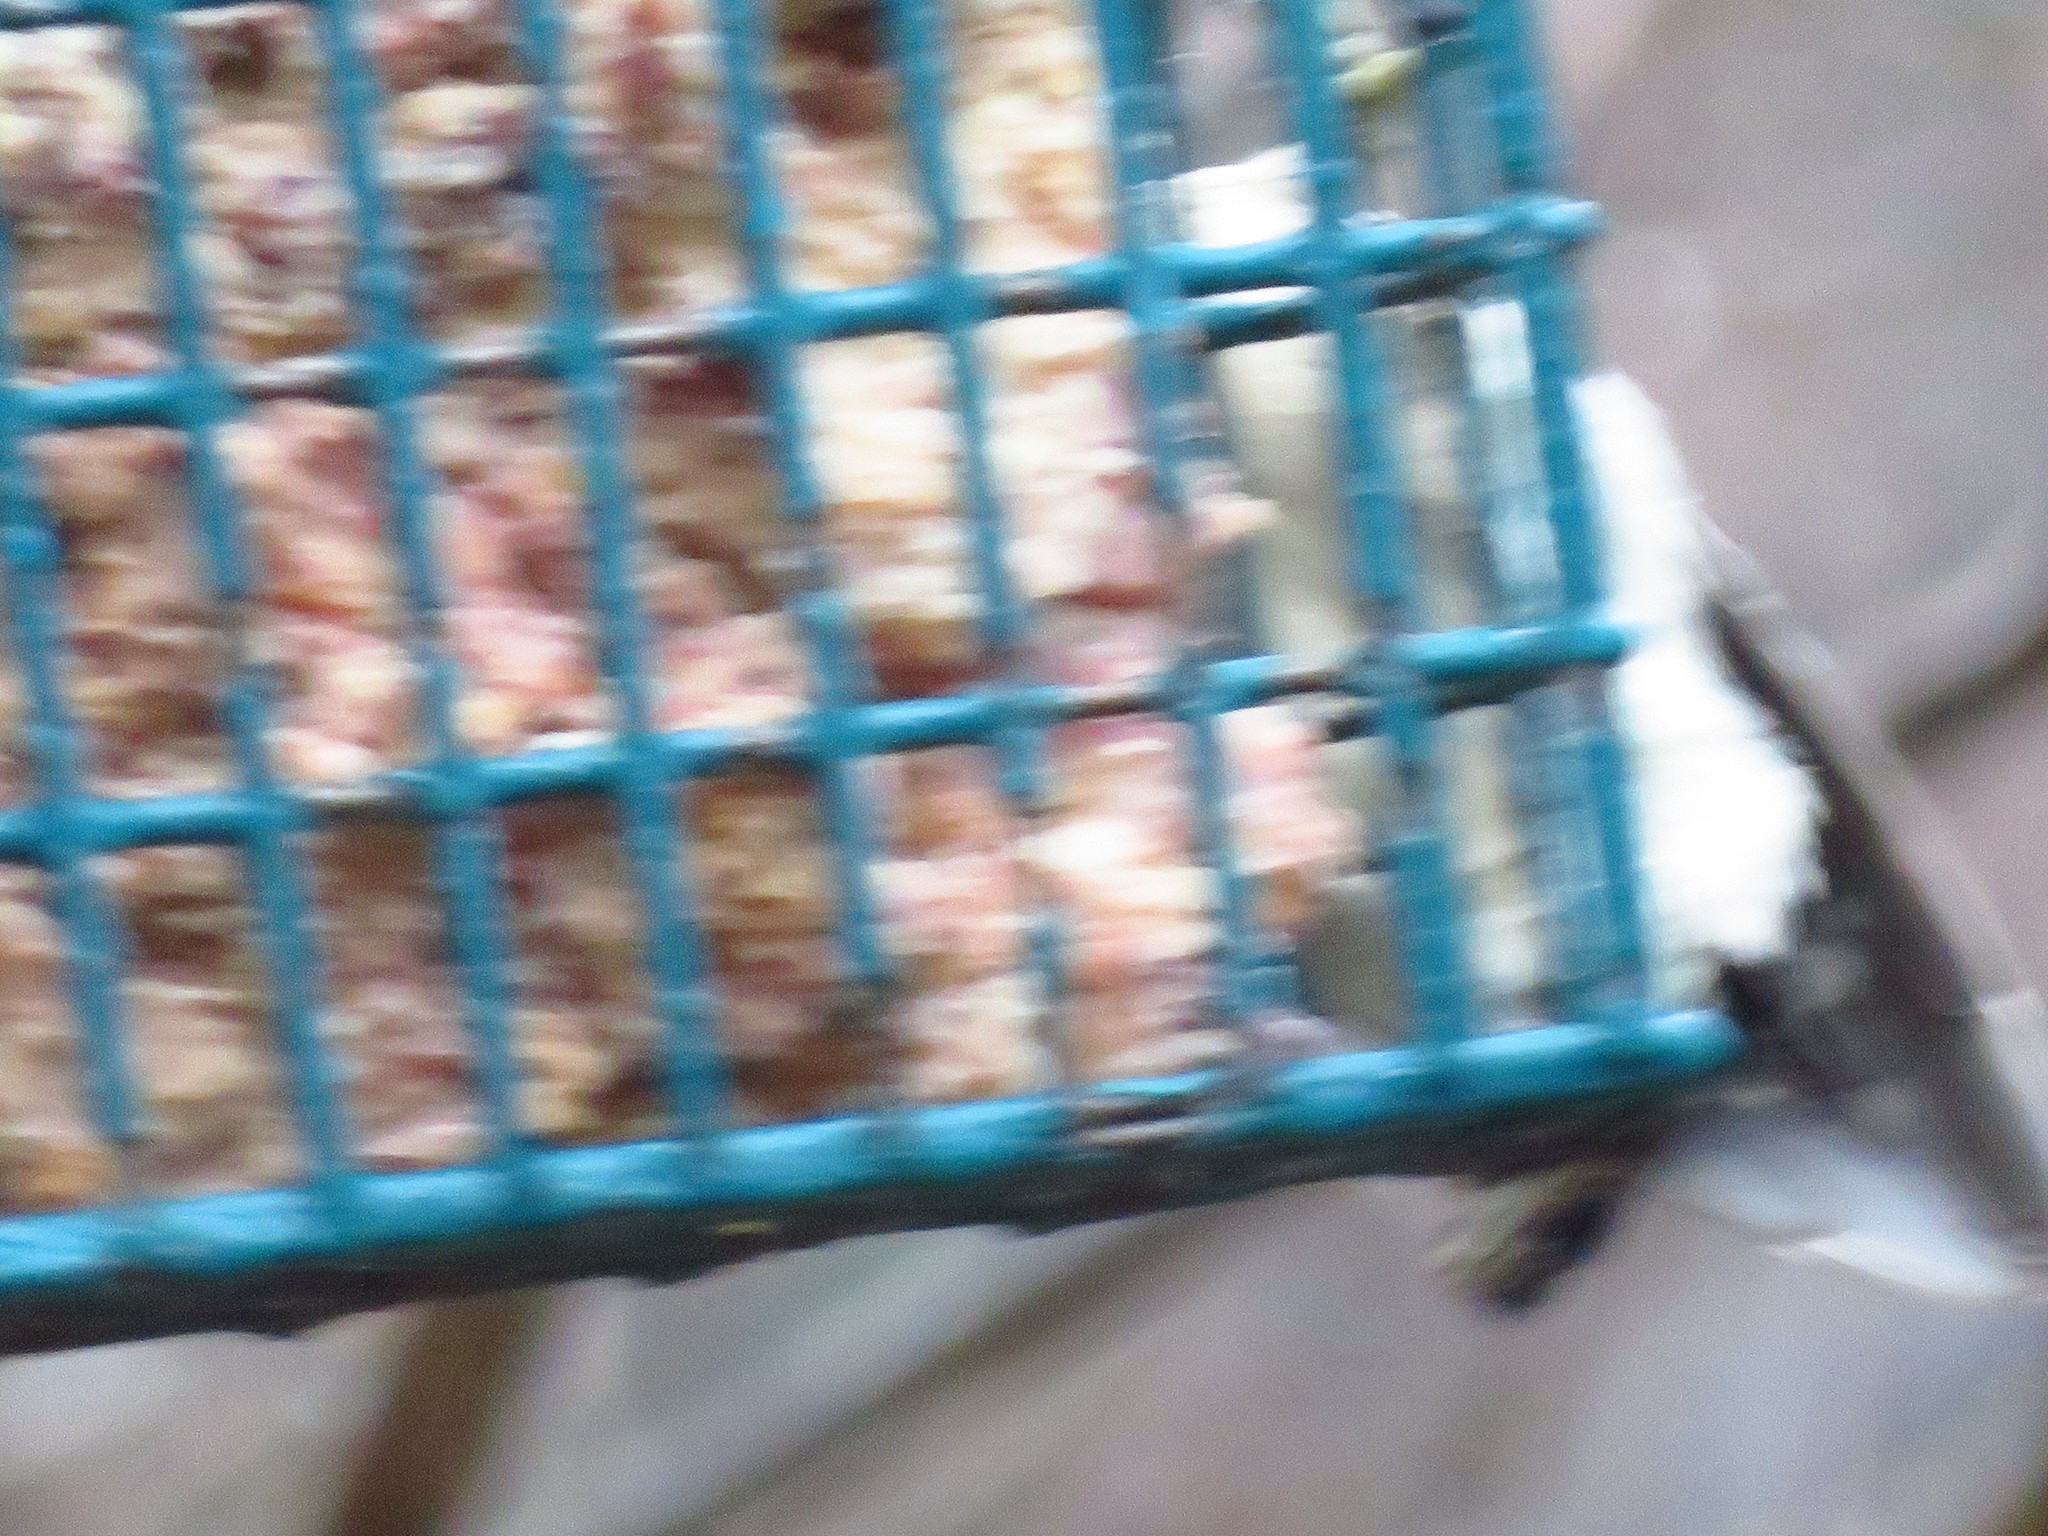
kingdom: Animalia
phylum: Chordata
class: Aves
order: Piciformes
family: Picidae
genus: Dryobates
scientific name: Dryobates pubescens
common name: Downy woodpecker
